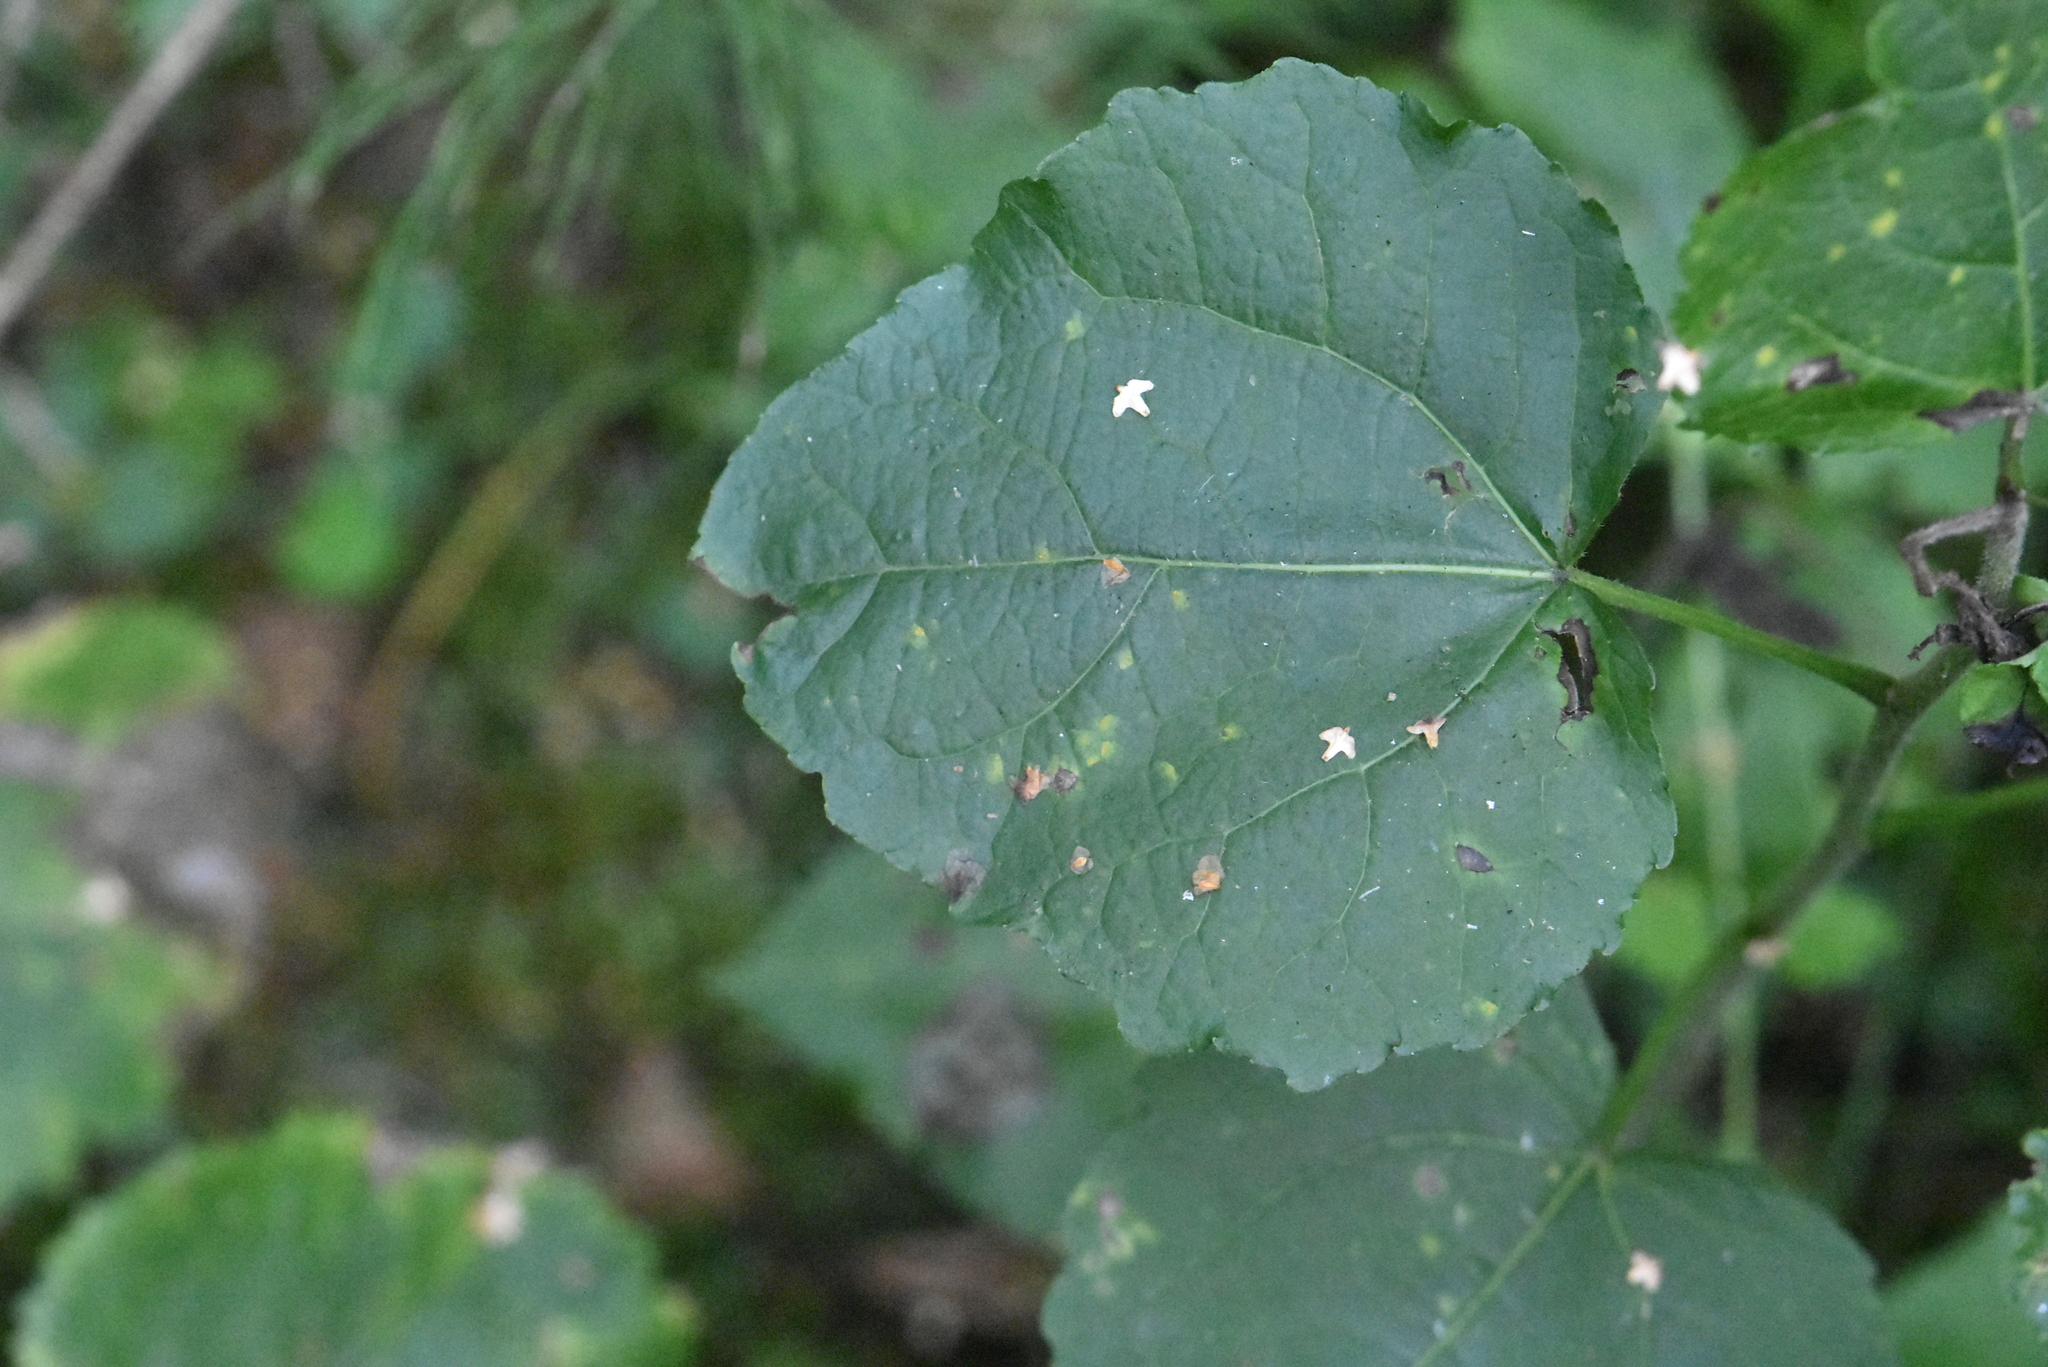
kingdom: Plantae
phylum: Tracheophyta
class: Magnoliopsida
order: Malpighiales
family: Salicaceae
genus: Populus
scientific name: Populus tremula
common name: European aspen
